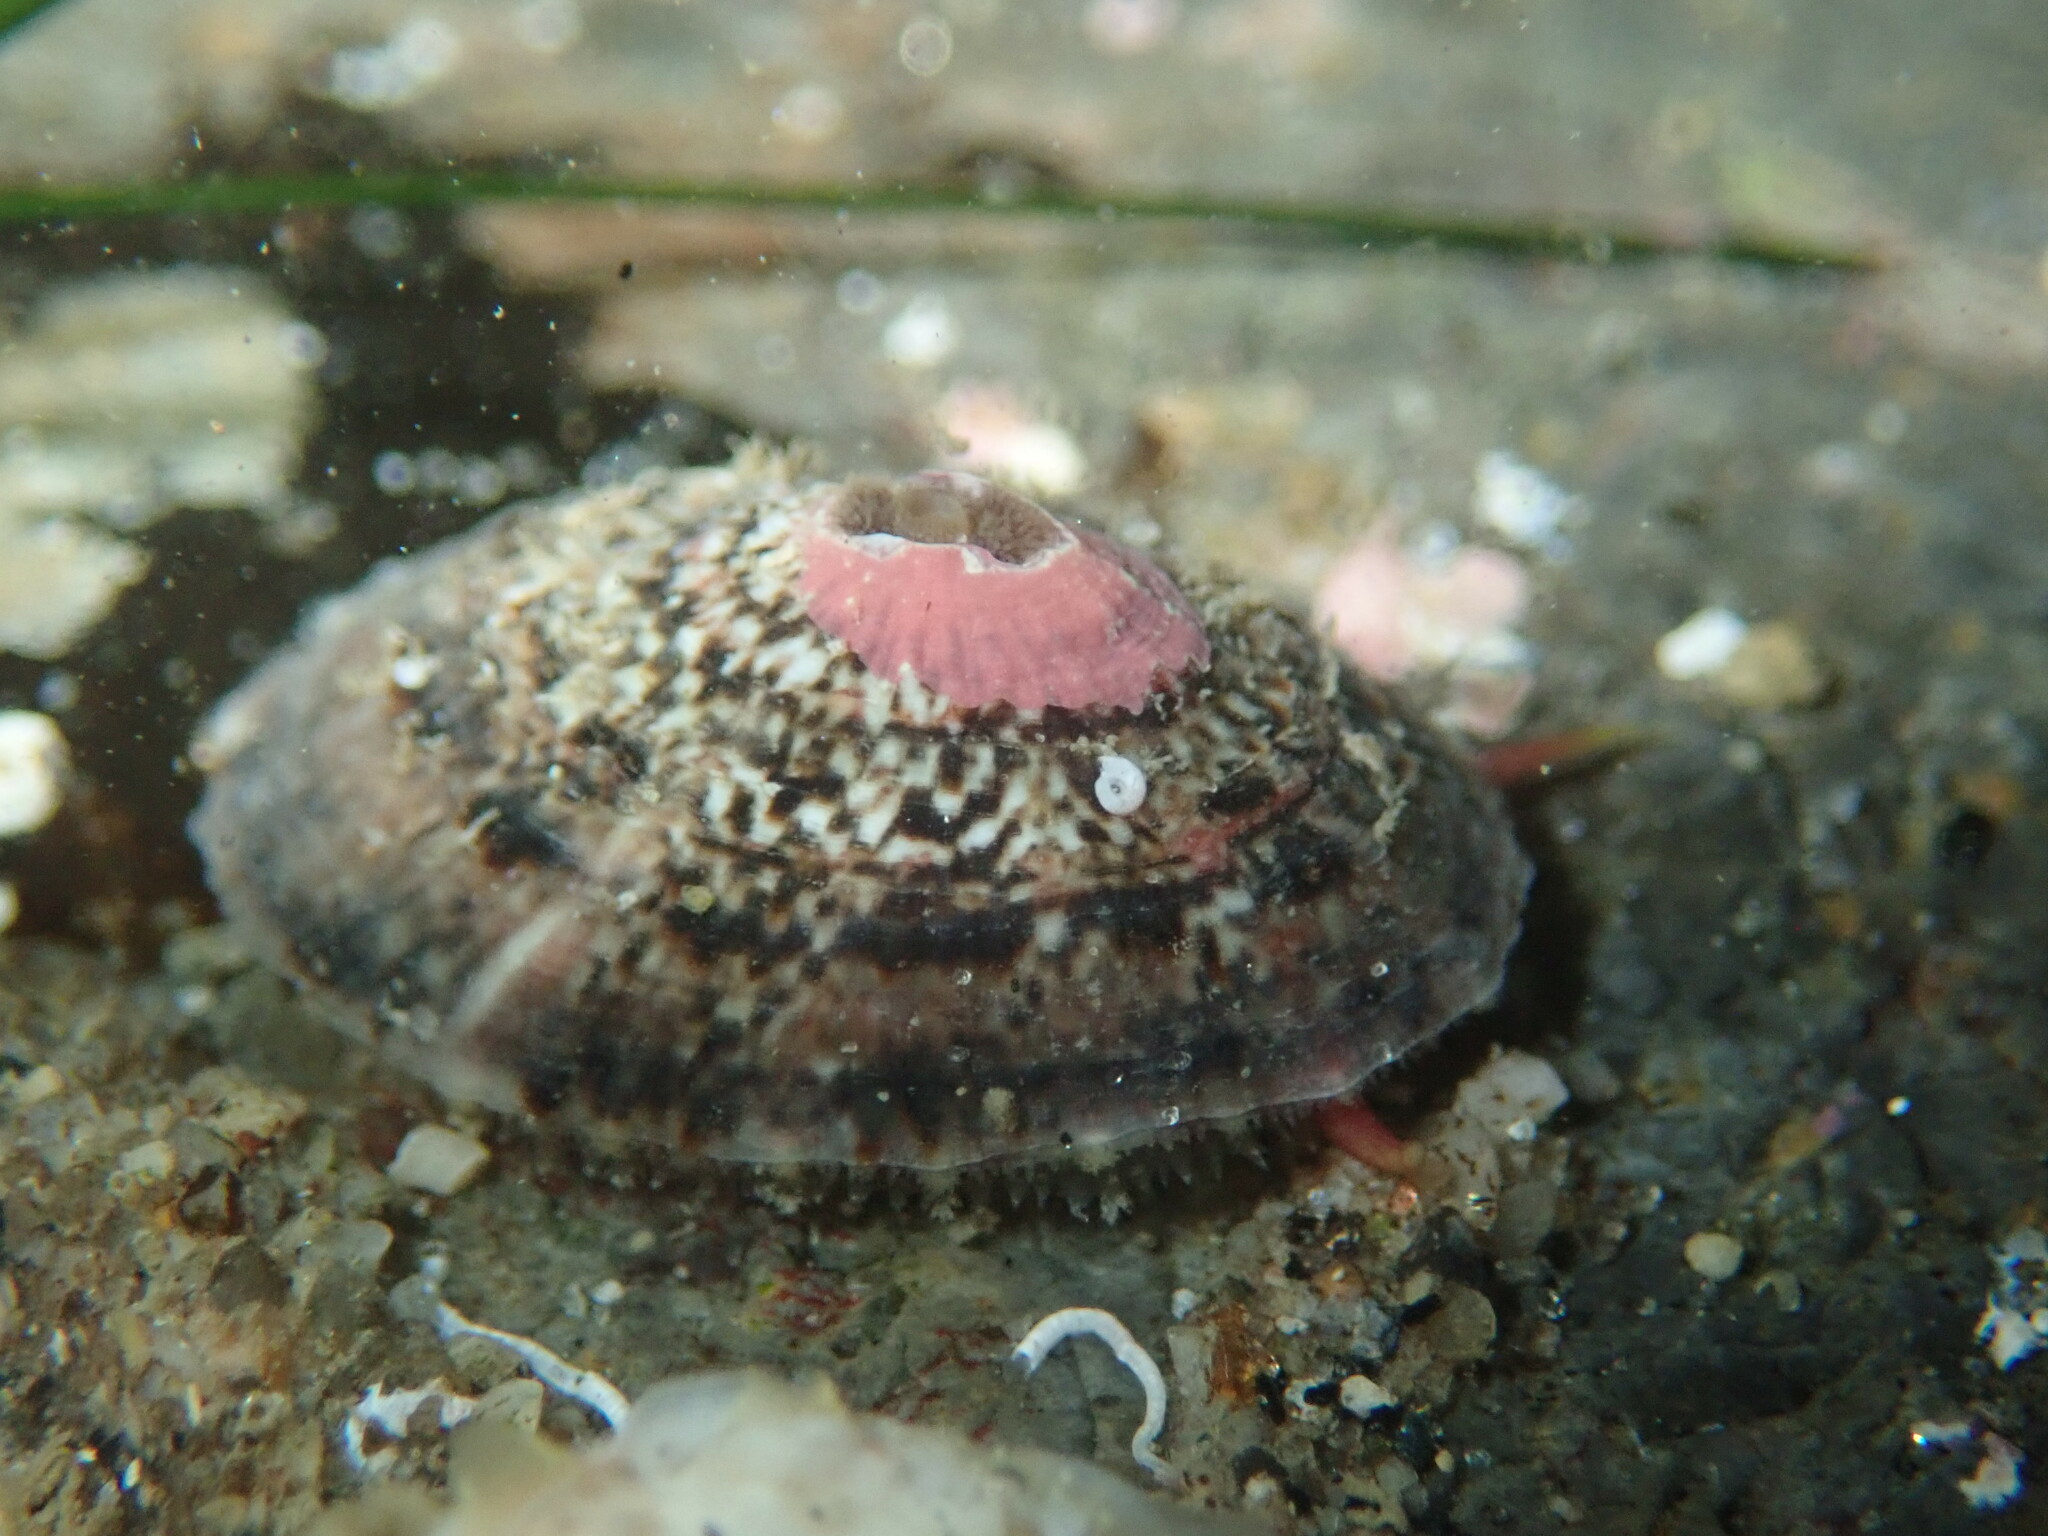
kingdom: Animalia
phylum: Mollusca
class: Gastropoda
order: Lepetellida
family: Fissurellidae
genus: Fissurella
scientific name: Fissurella volcano
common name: Volcano keyhole limpet
